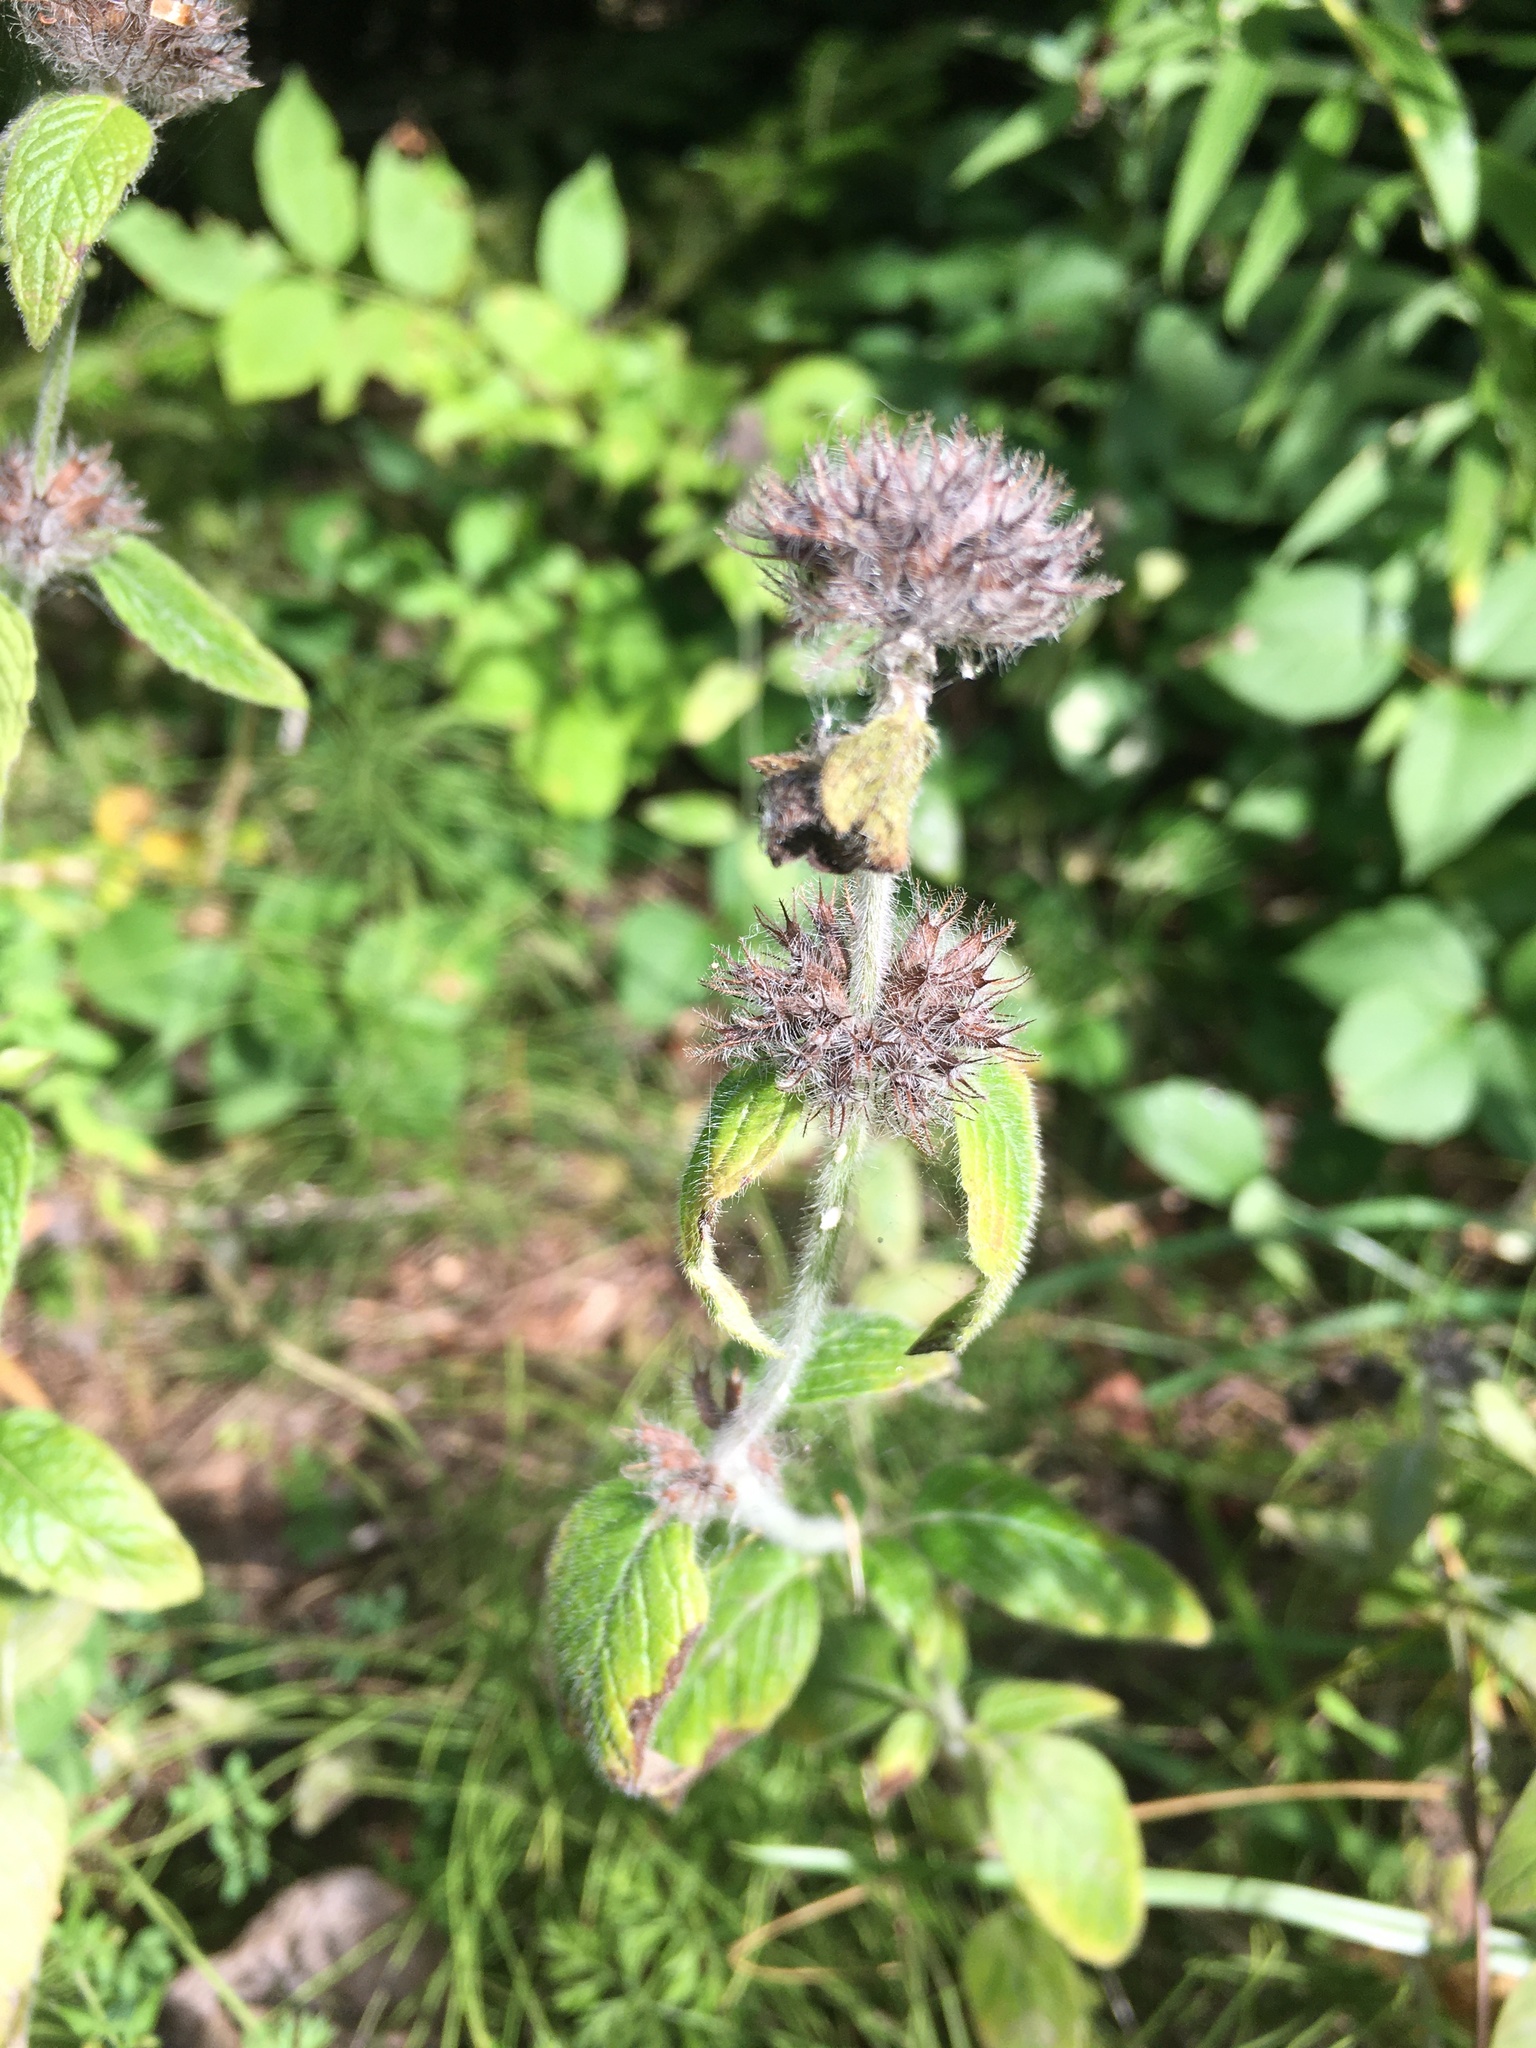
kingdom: Plantae
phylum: Tracheophyta
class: Magnoliopsida
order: Lamiales
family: Lamiaceae
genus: Clinopodium
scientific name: Clinopodium vulgare
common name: Wild basil
